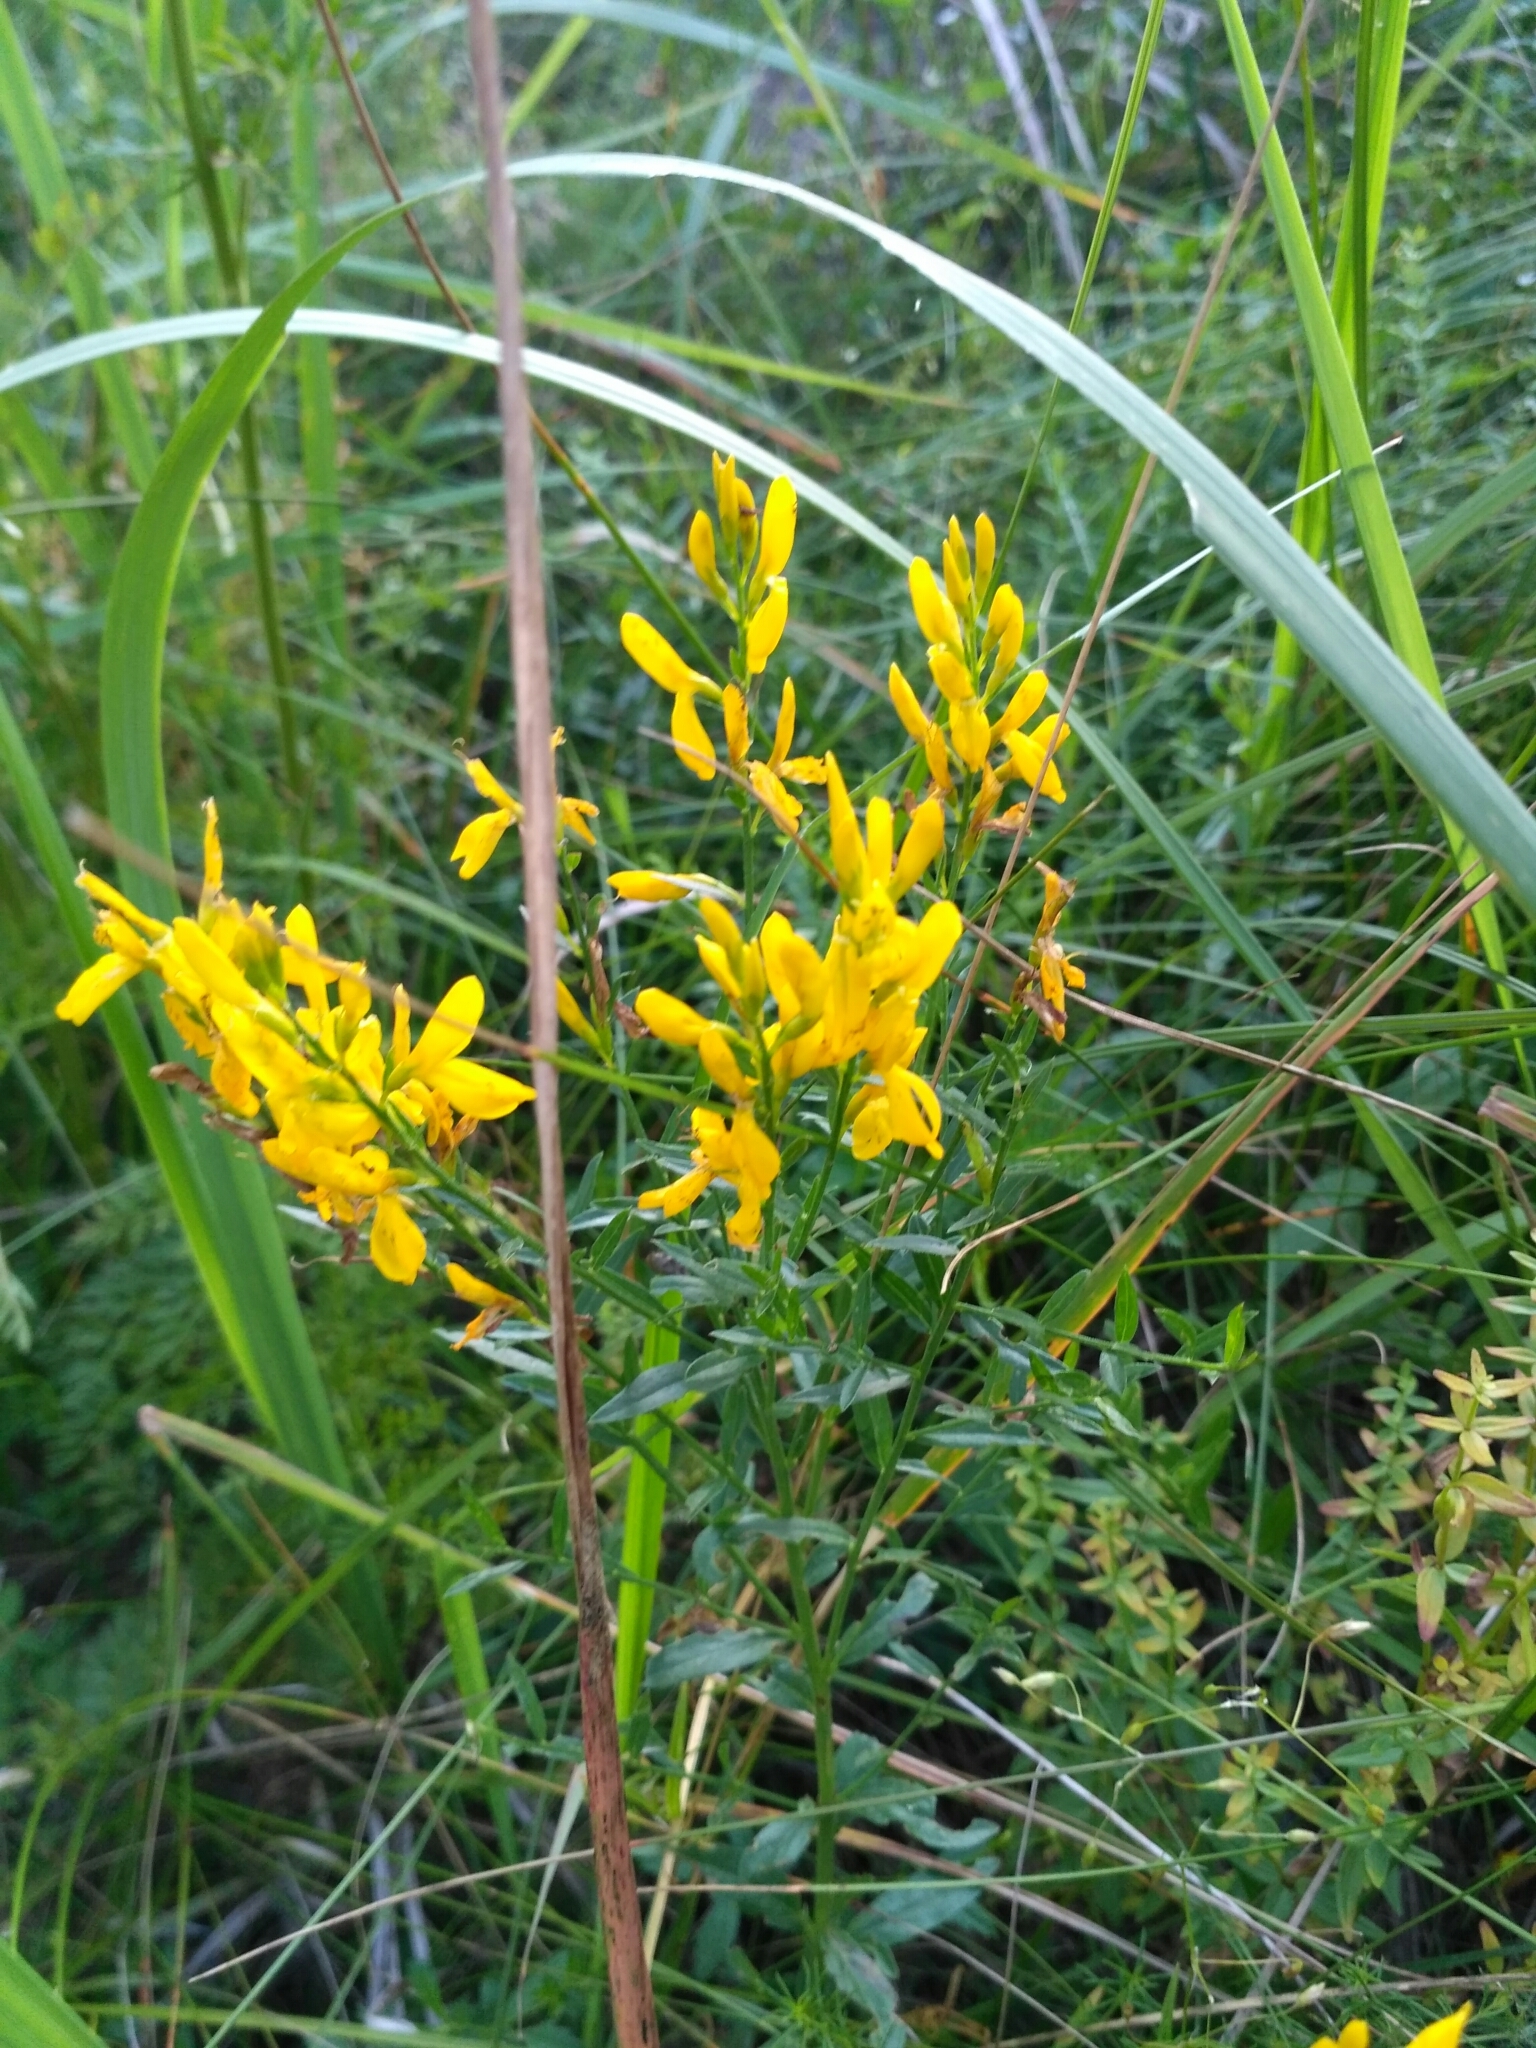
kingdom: Plantae
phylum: Tracheophyta
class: Magnoliopsida
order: Fabales
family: Fabaceae
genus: Genista
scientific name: Genista tinctoria
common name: Dyer's greenweed
